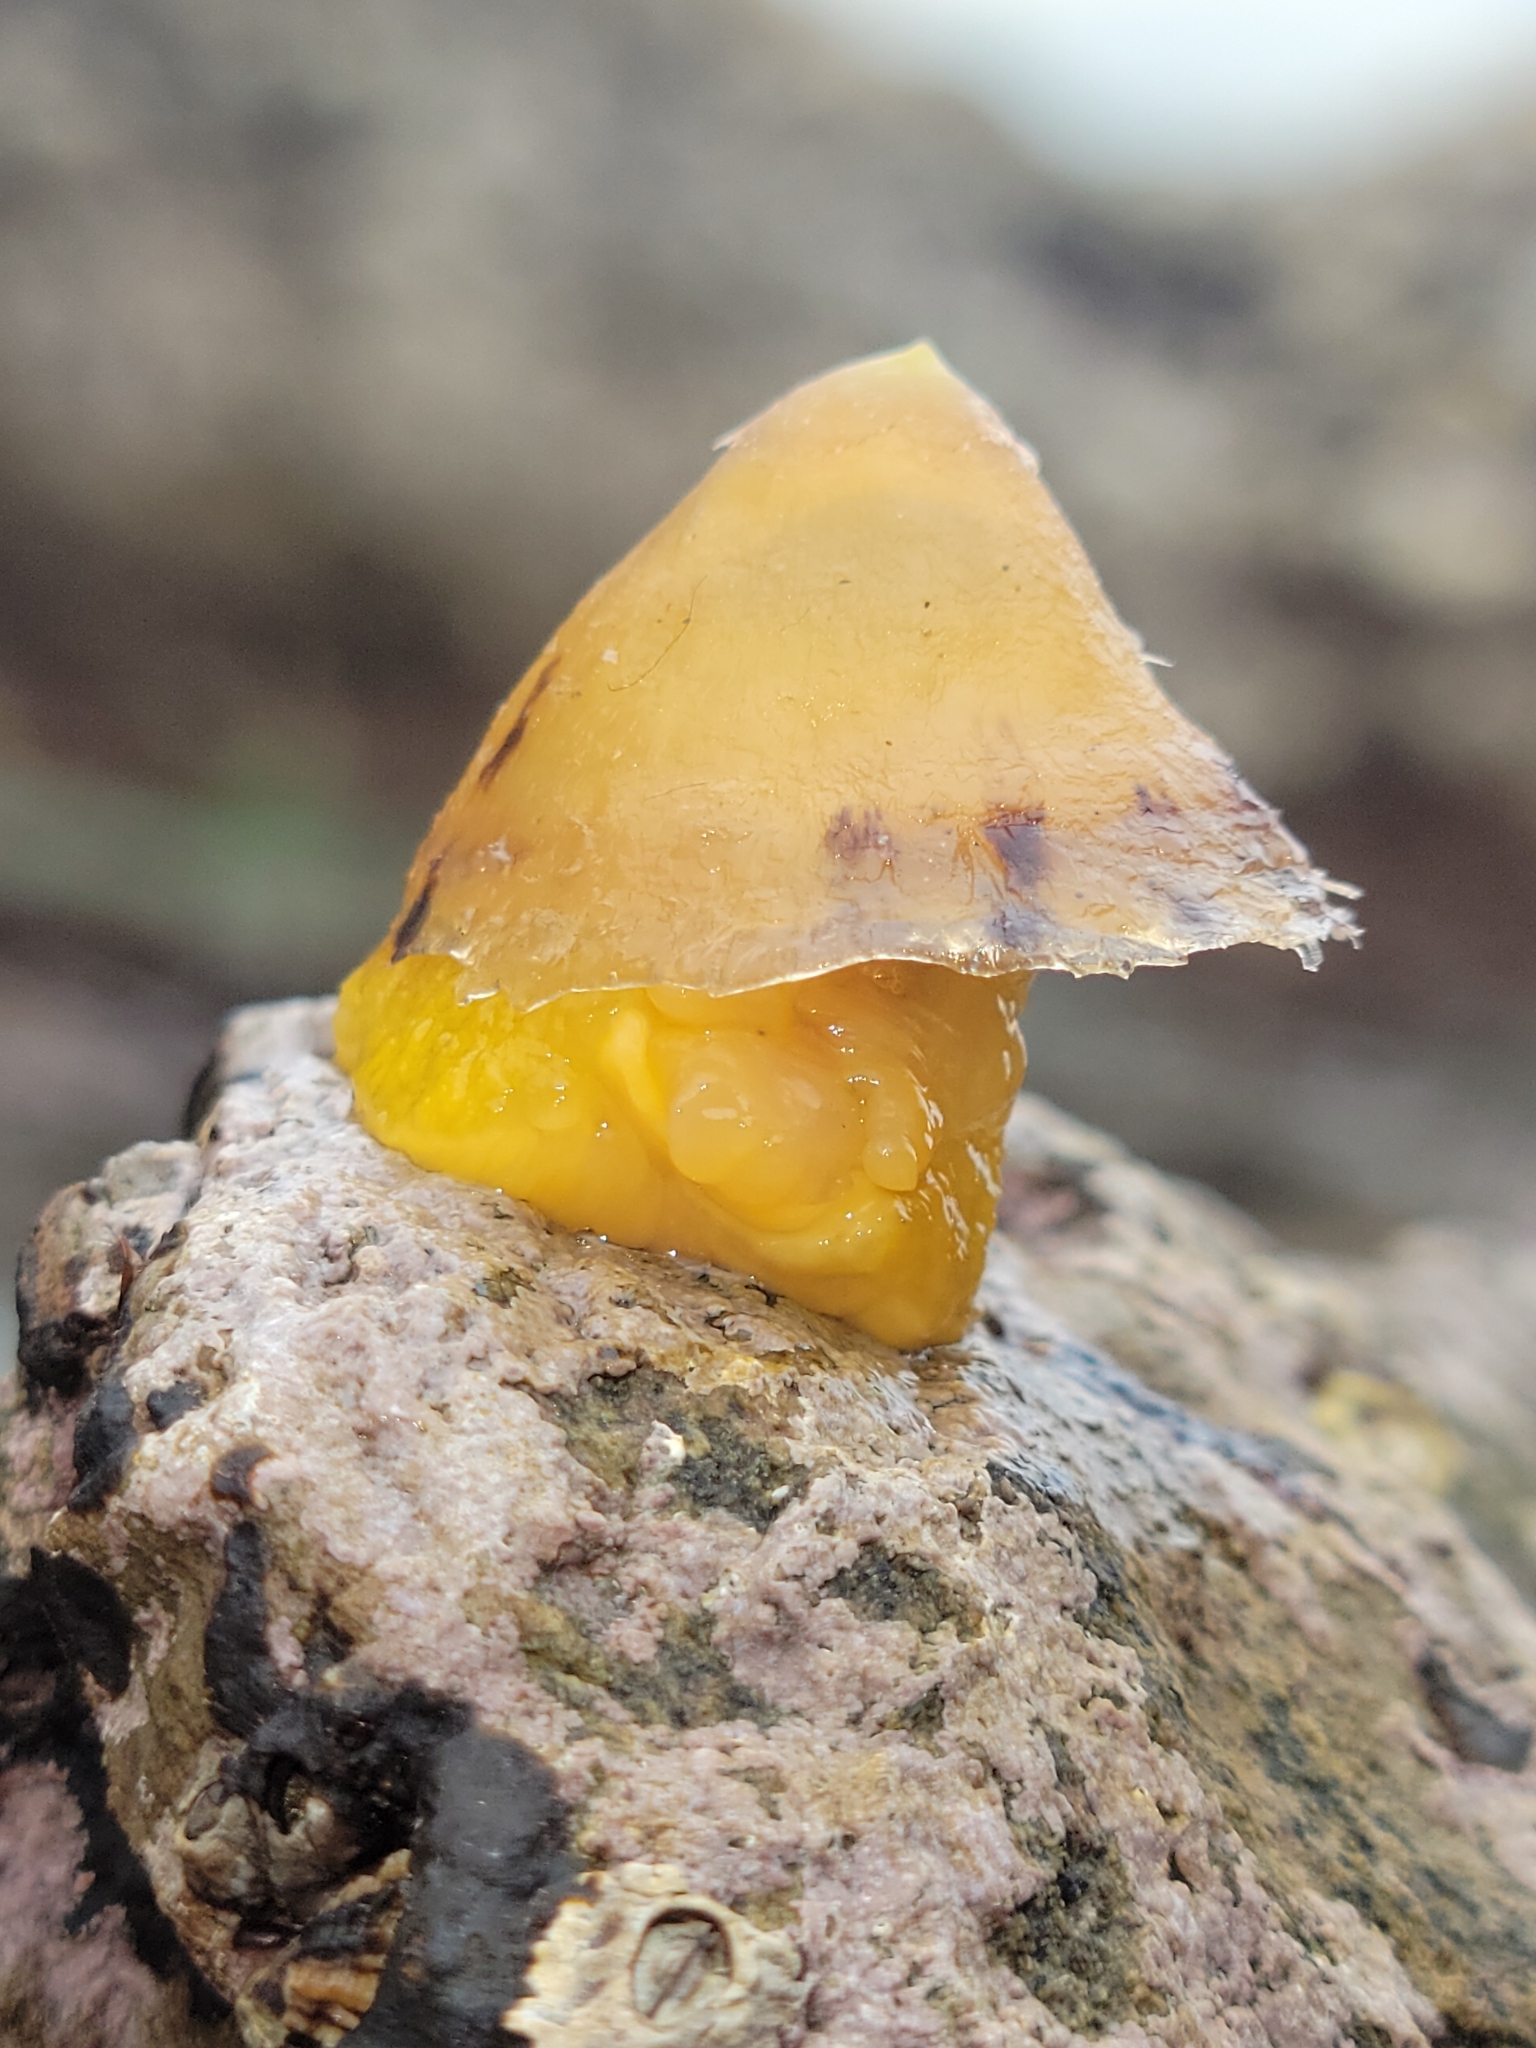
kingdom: Animalia
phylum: Mollusca
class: Gastropoda
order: Umbraculida
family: Tylodinidae
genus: Tylodina
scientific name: Tylodina fungina
